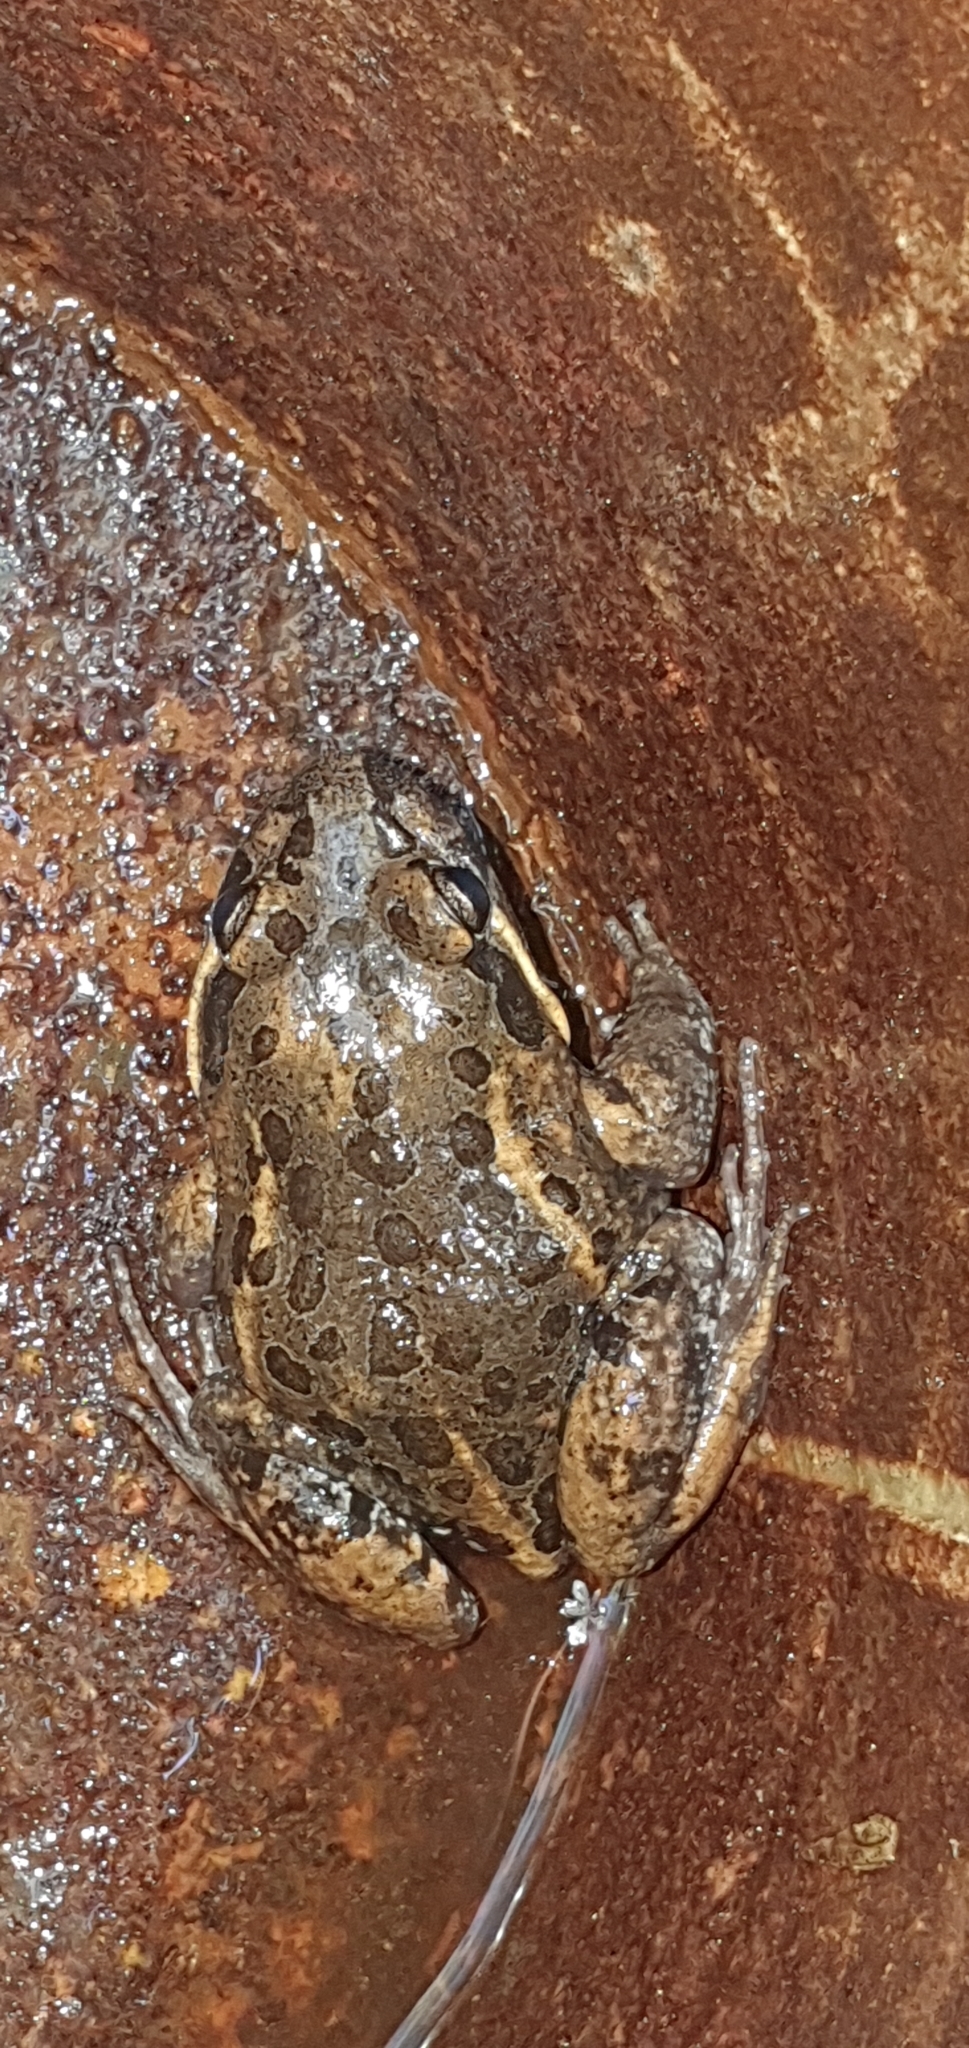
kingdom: Animalia
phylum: Chordata
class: Amphibia
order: Anura
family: Limnodynastidae
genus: Limnodynastes
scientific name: Limnodynastes salmini
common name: Salmon-striped frog
